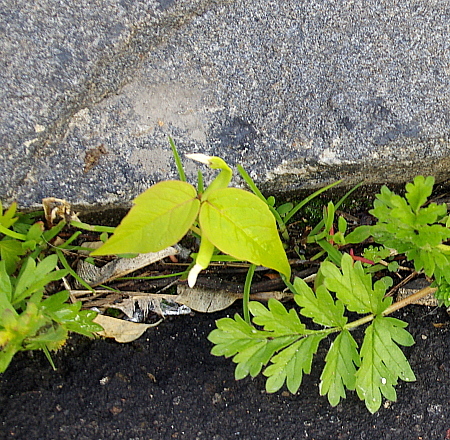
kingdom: Plantae
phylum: Tracheophyta
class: Magnoliopsida
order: Sapindales
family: Sapindaceae
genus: Acer
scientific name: Acer negundo
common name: Ashleaf maple
